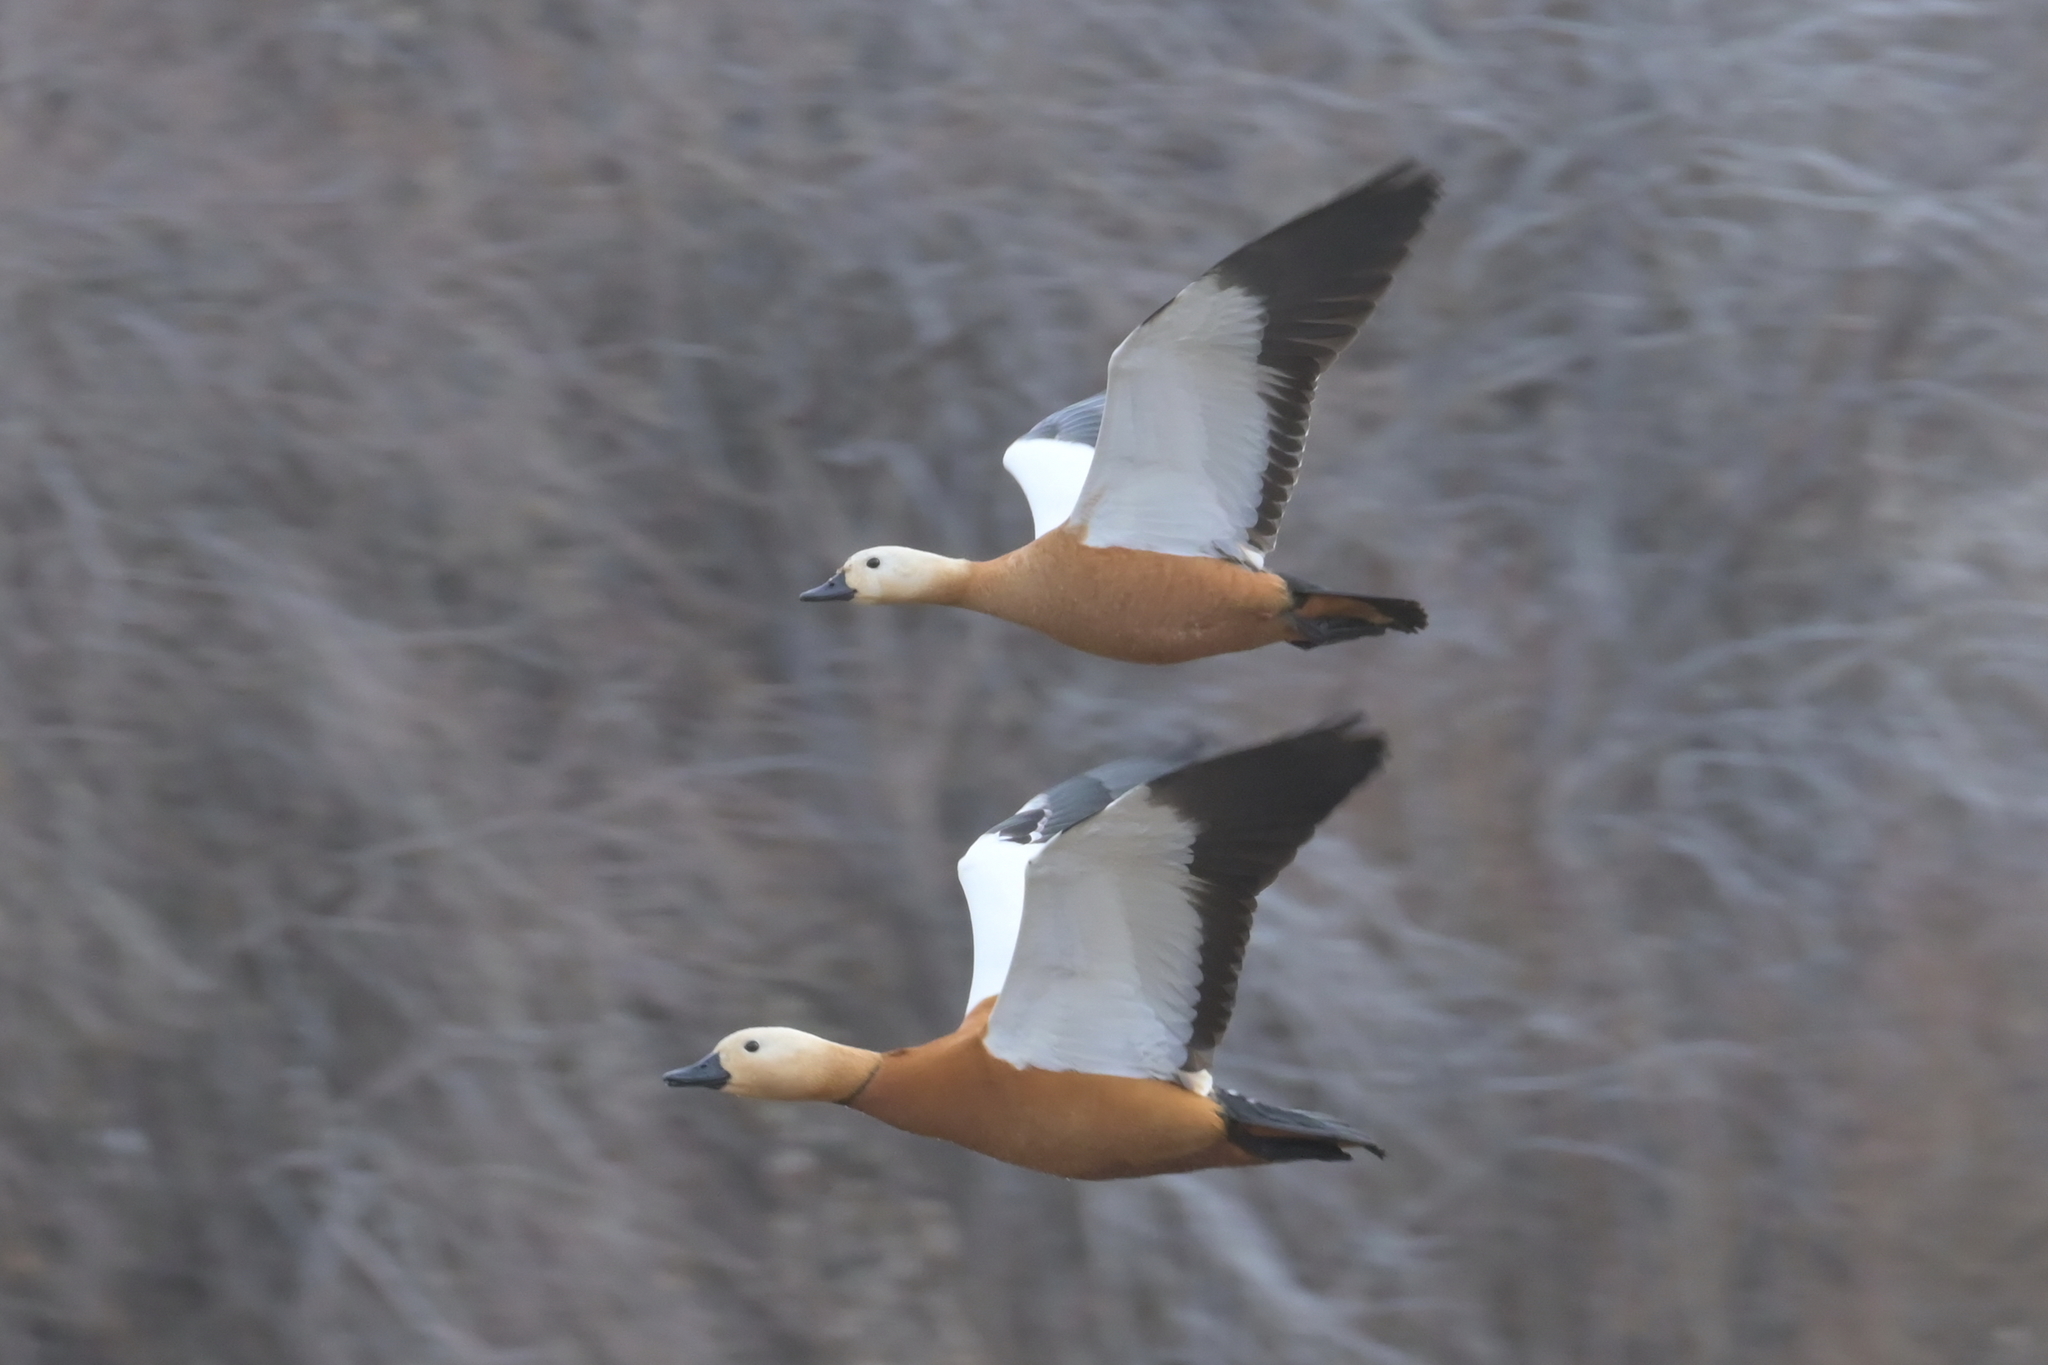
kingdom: Animalia
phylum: Chordata
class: Aves
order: Anseriformes
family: Anatidae
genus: Tadorna
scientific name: Tadorna ferruginea
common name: Ruddy shelduck
